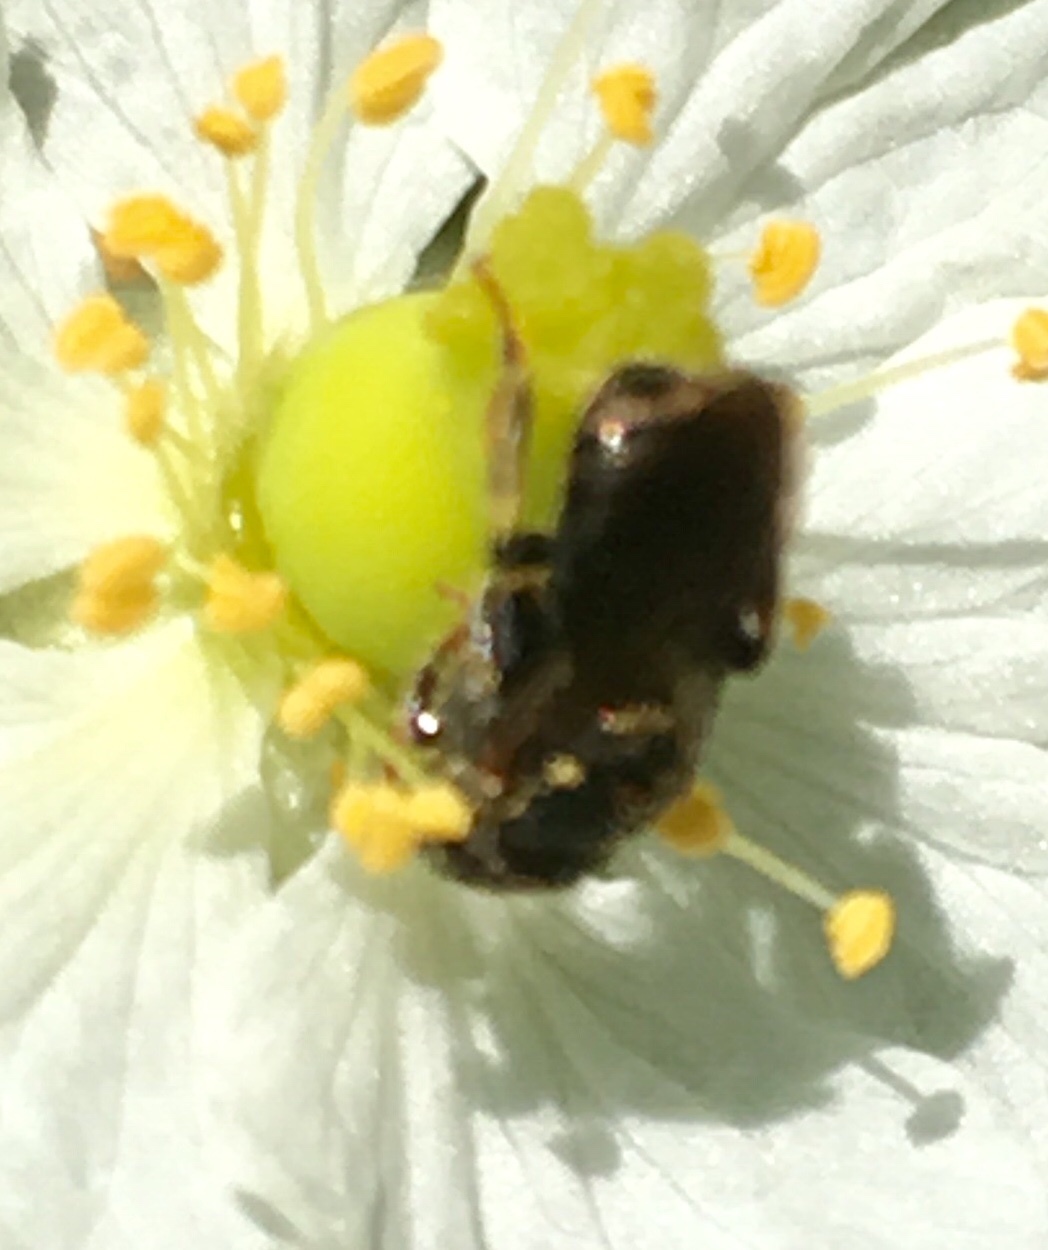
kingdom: Animalia
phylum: Arthropoda
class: Insecta
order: Hymenoptera
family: Apidae
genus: Nannotrigona
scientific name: Nannotrigona perilampoides
